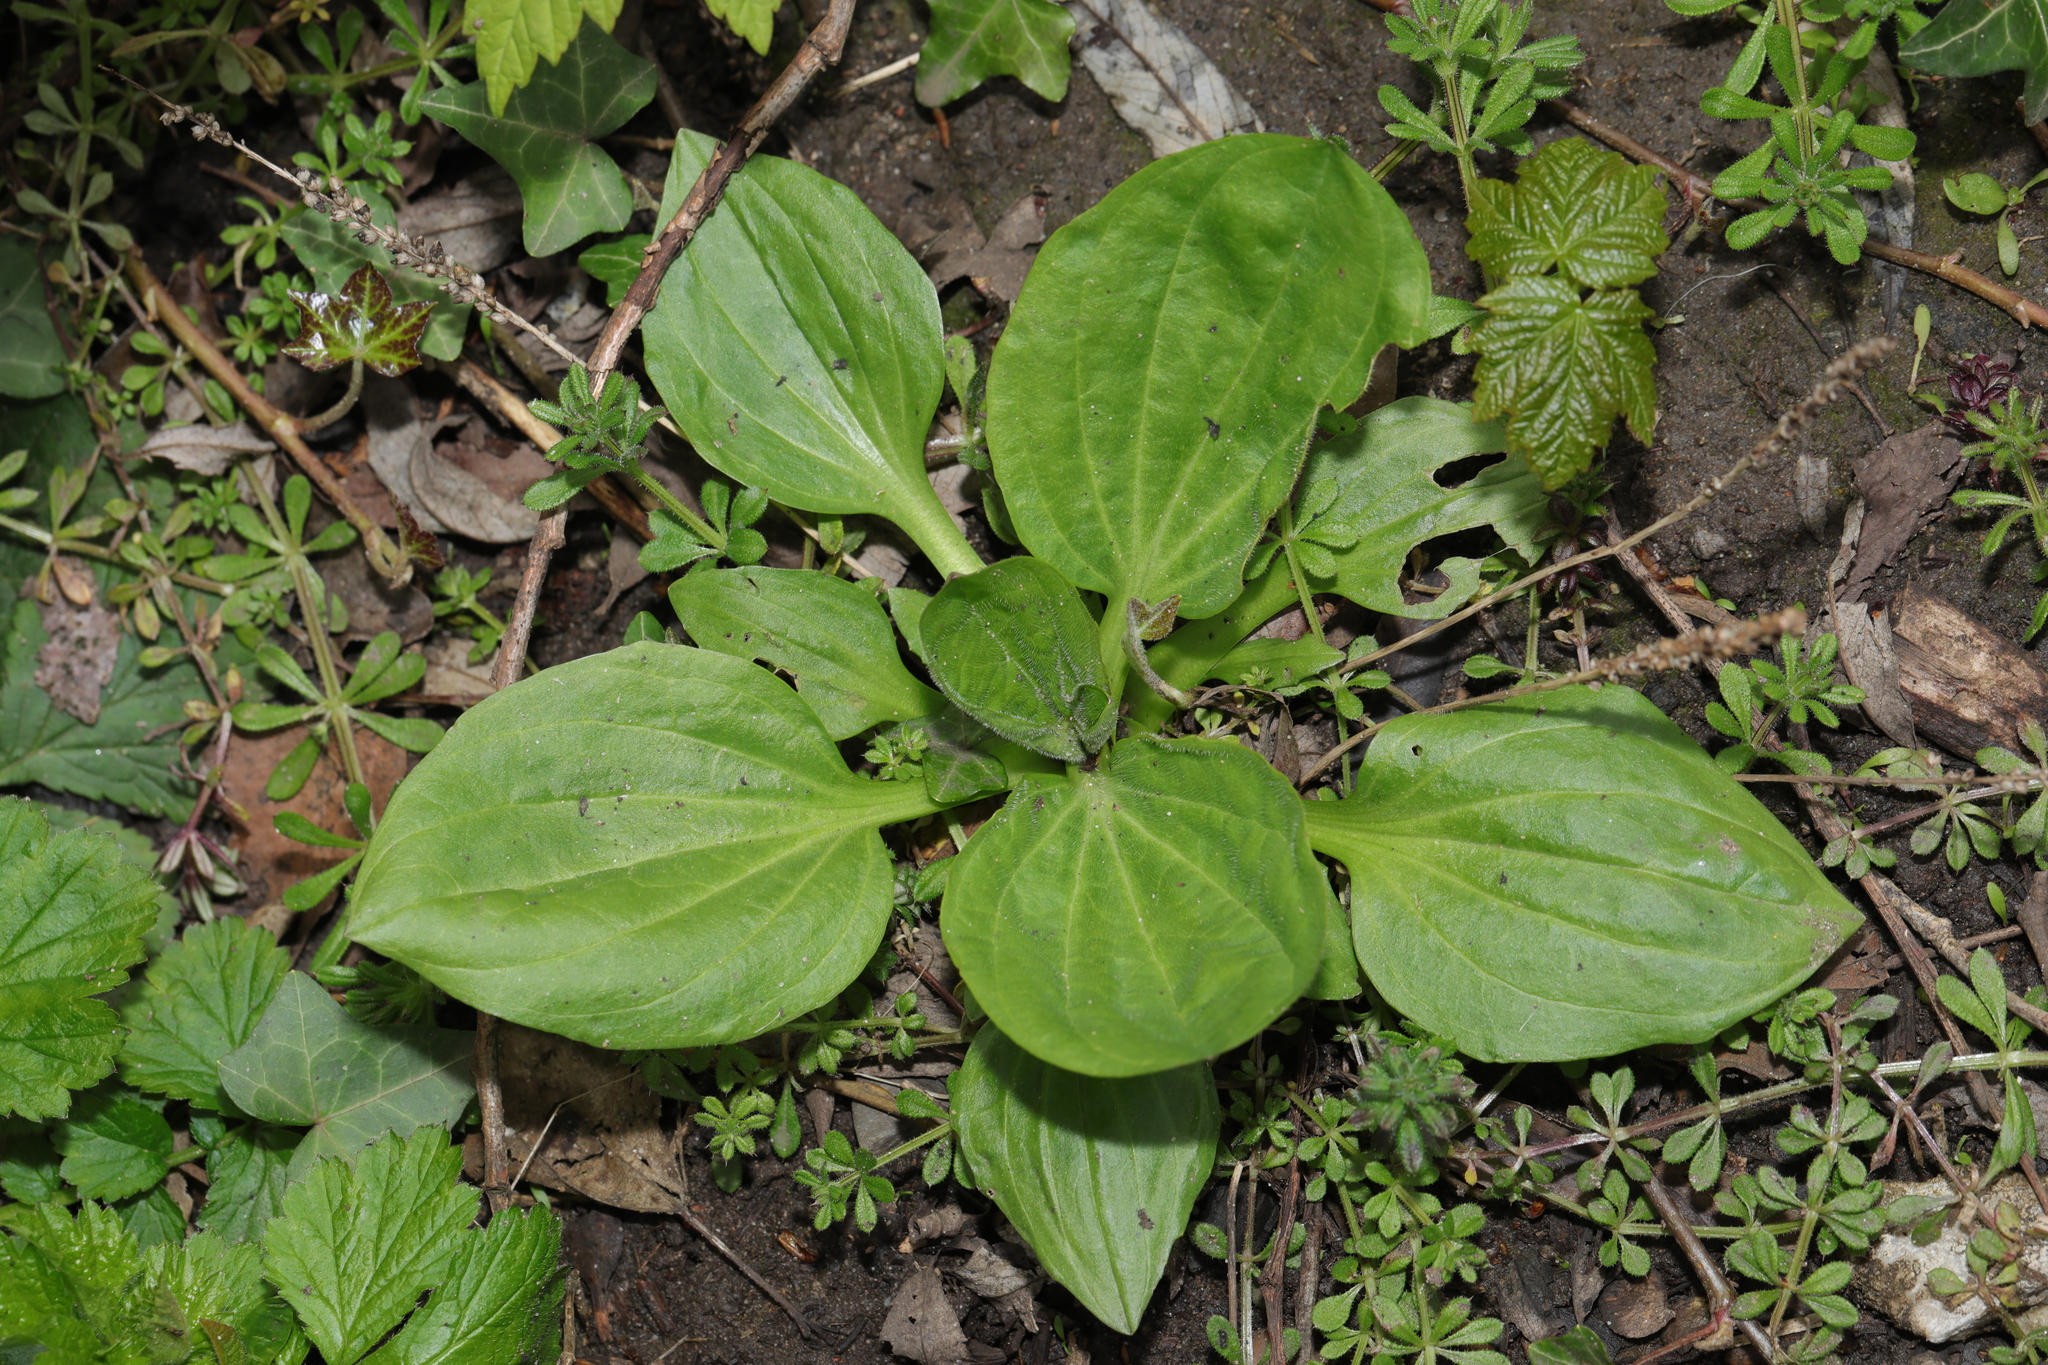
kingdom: Plantae
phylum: Tracheophyta
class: Magnoliopsida
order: Lamiales
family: Plantaginaceae
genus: Plantago
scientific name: Plantago major
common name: Common plantain
